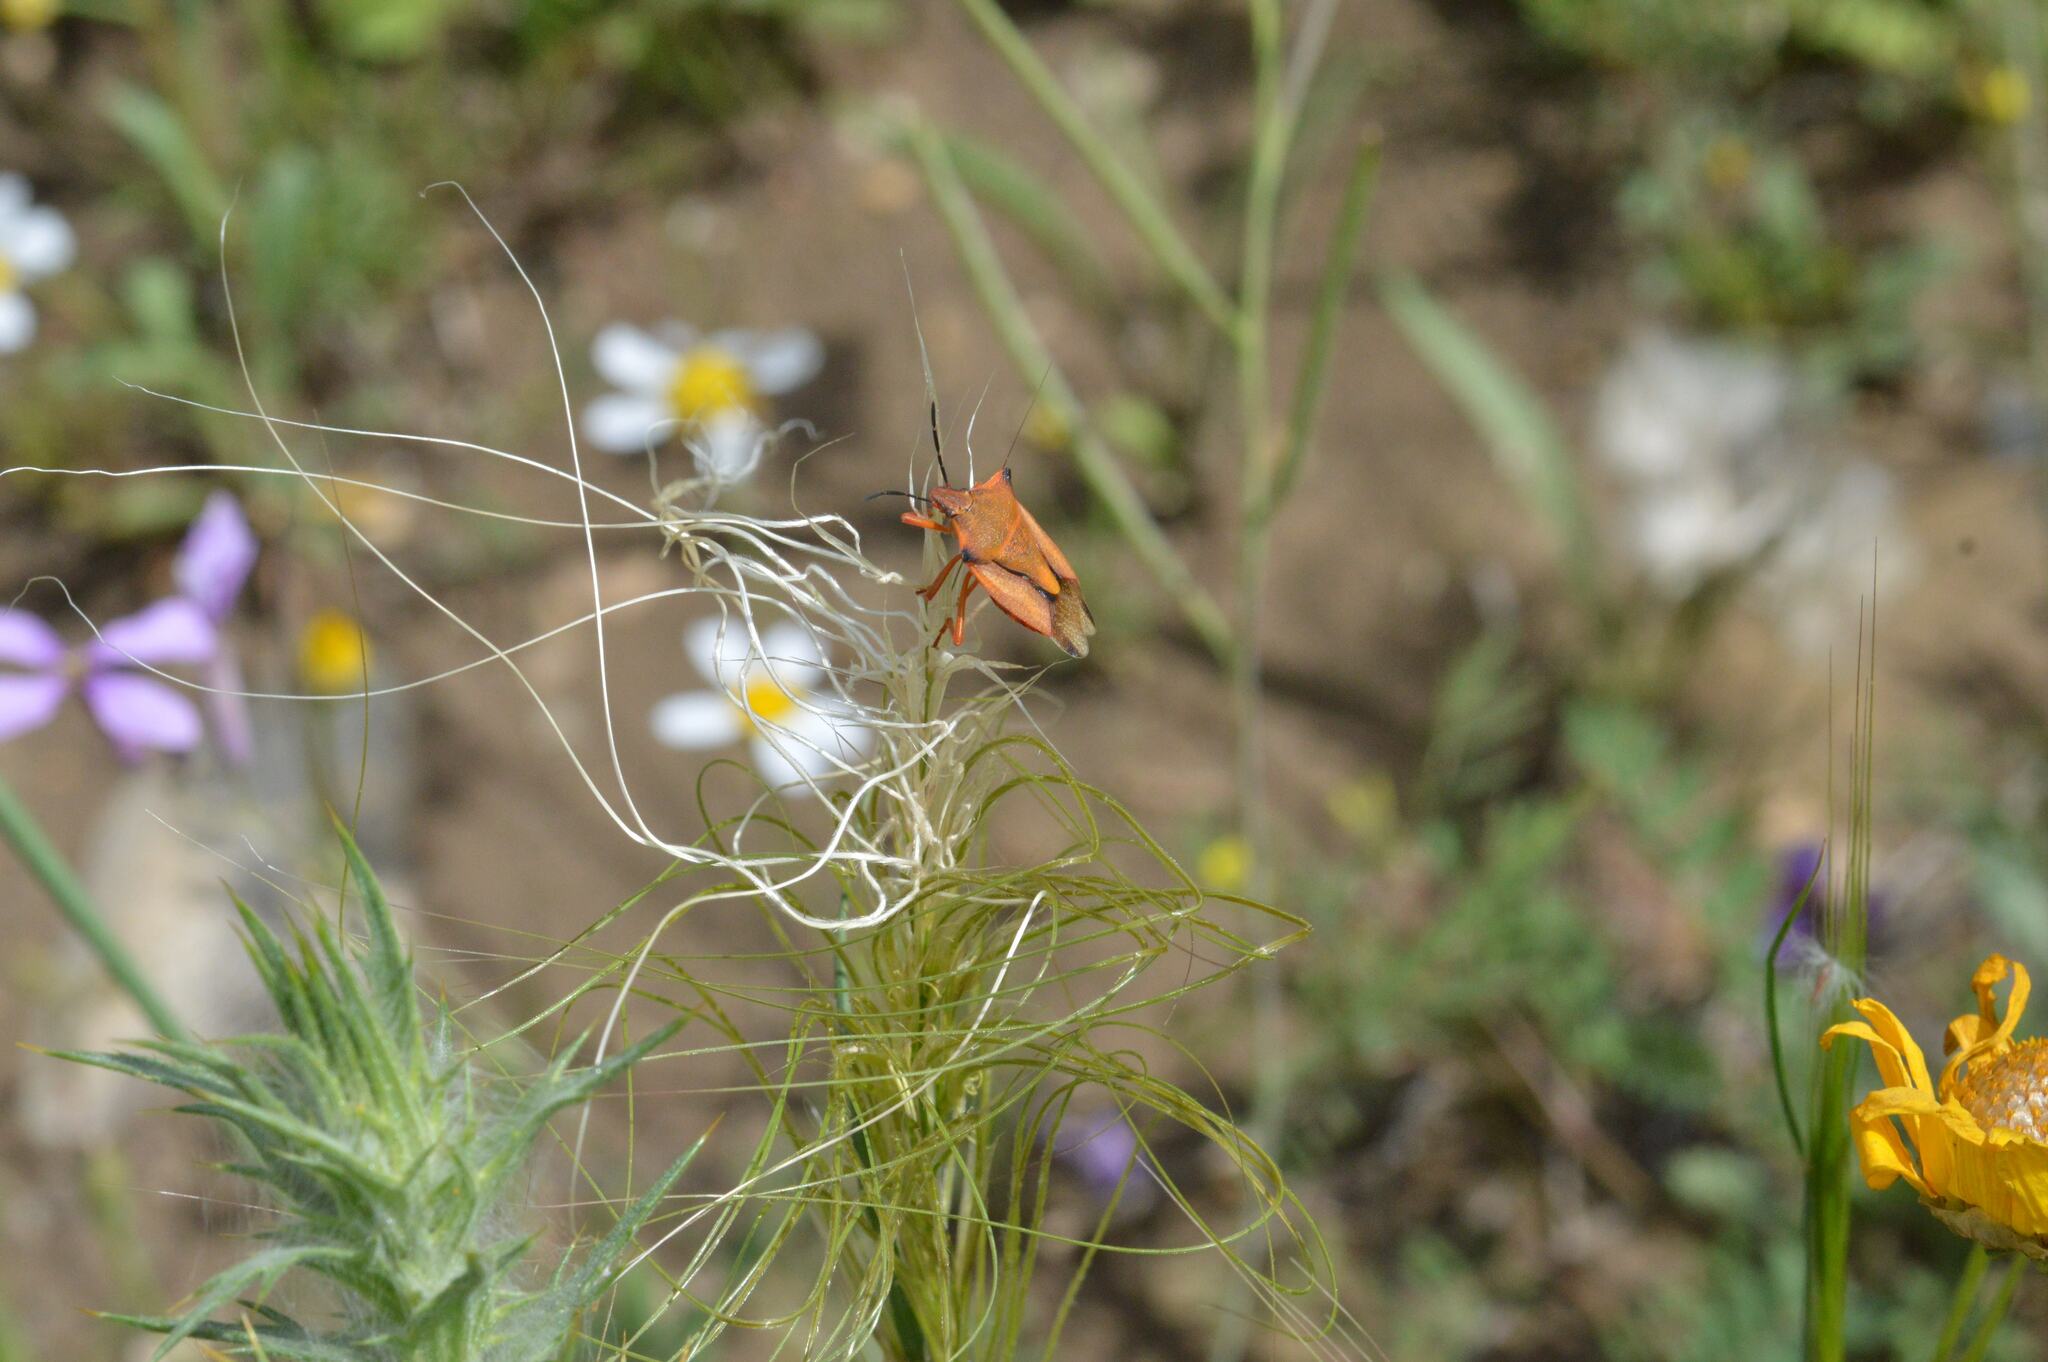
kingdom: Animalia
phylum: Arthropoda
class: Insecta
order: Hemiptera
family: Pentatomidae
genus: Carpocoris
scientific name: Carpocoris mediterraneus
